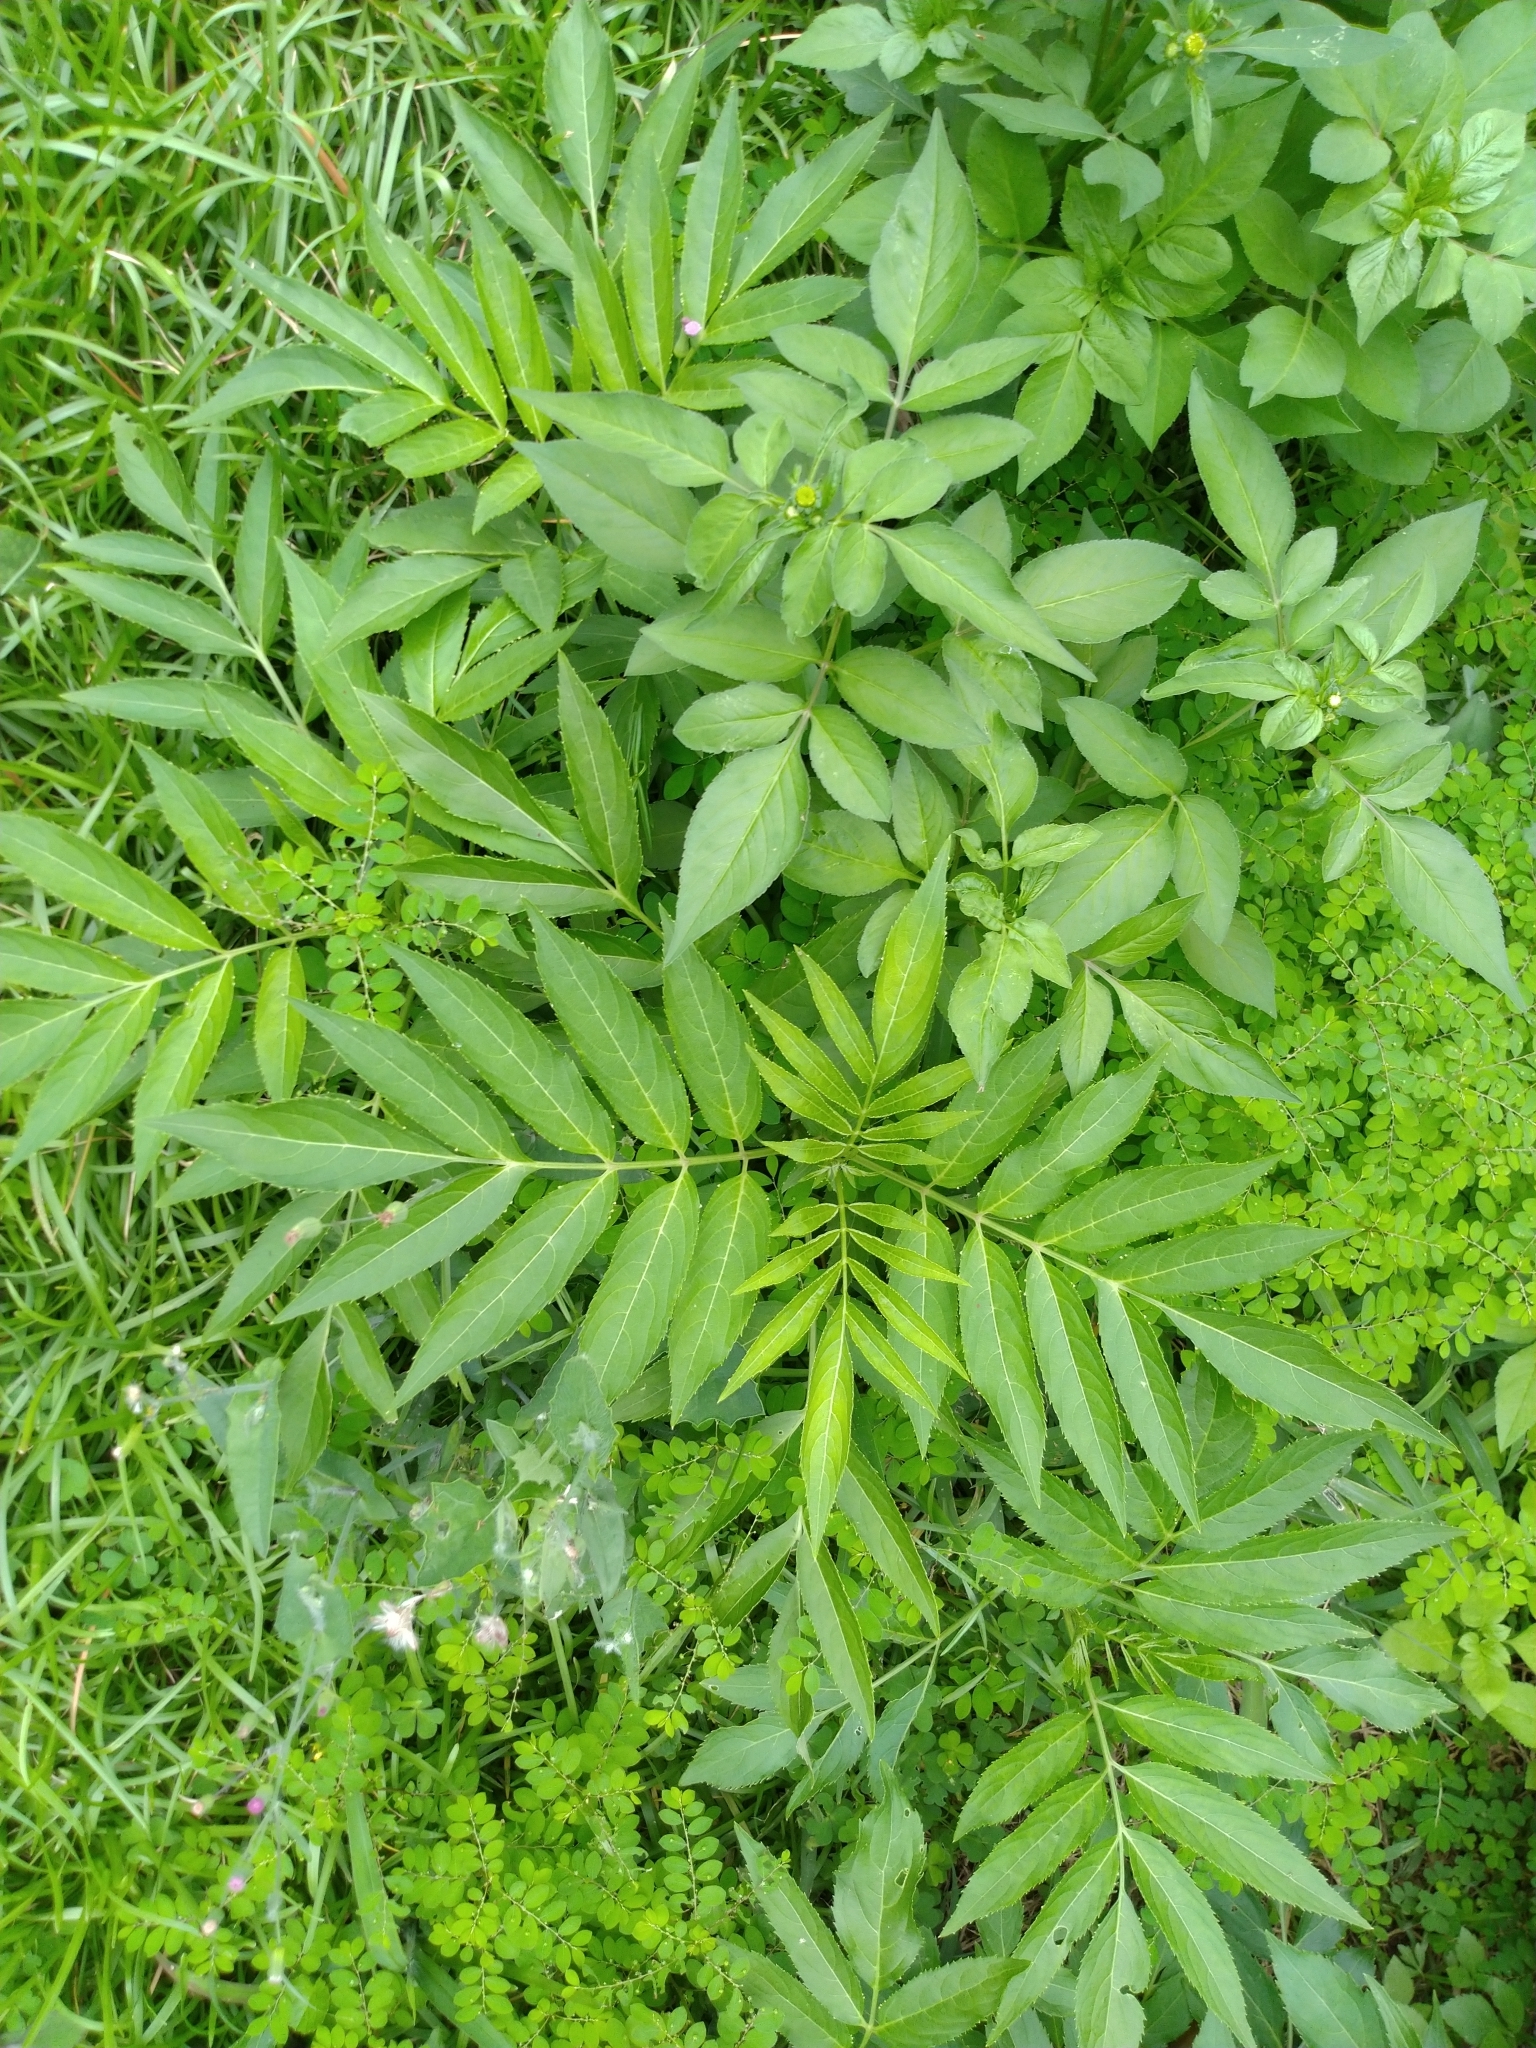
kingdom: Plantae
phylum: Tracheophyta
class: Magnoliopsida
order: Dipsacales
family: Viburnaceae
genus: Sambucus
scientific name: Sambucus javanica
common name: Chinese elder
